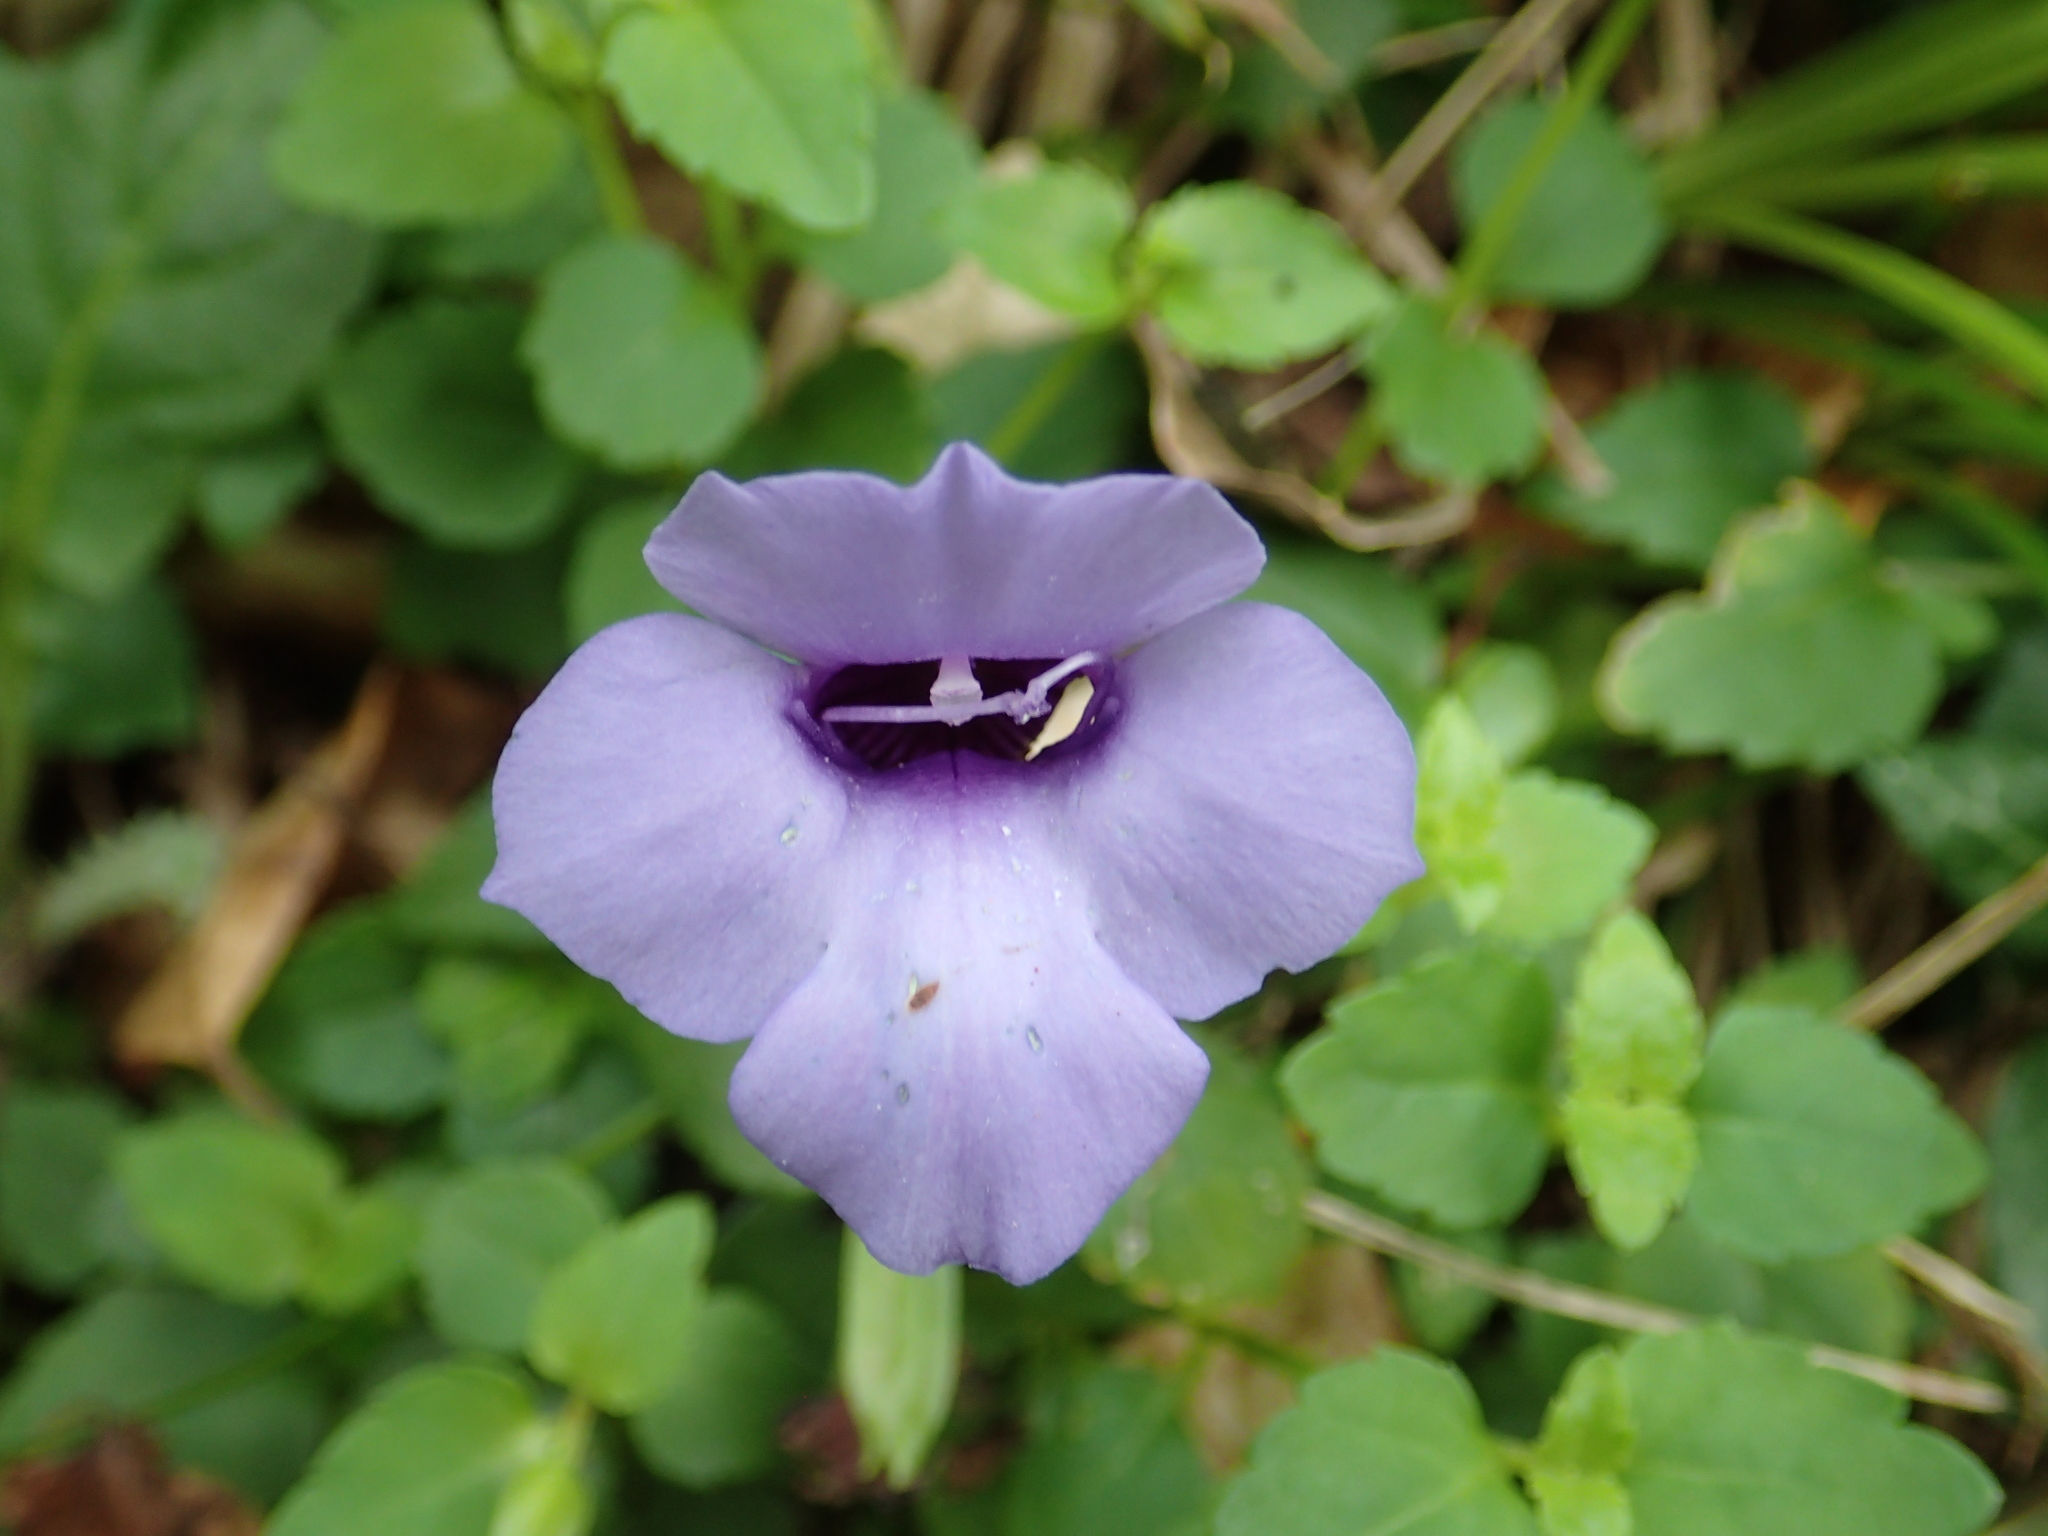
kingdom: Plantae
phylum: Tracheophyta
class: Magnoliopsida
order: Lamiales
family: Linderniaceae
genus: Torenia
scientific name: Torenia concolor
